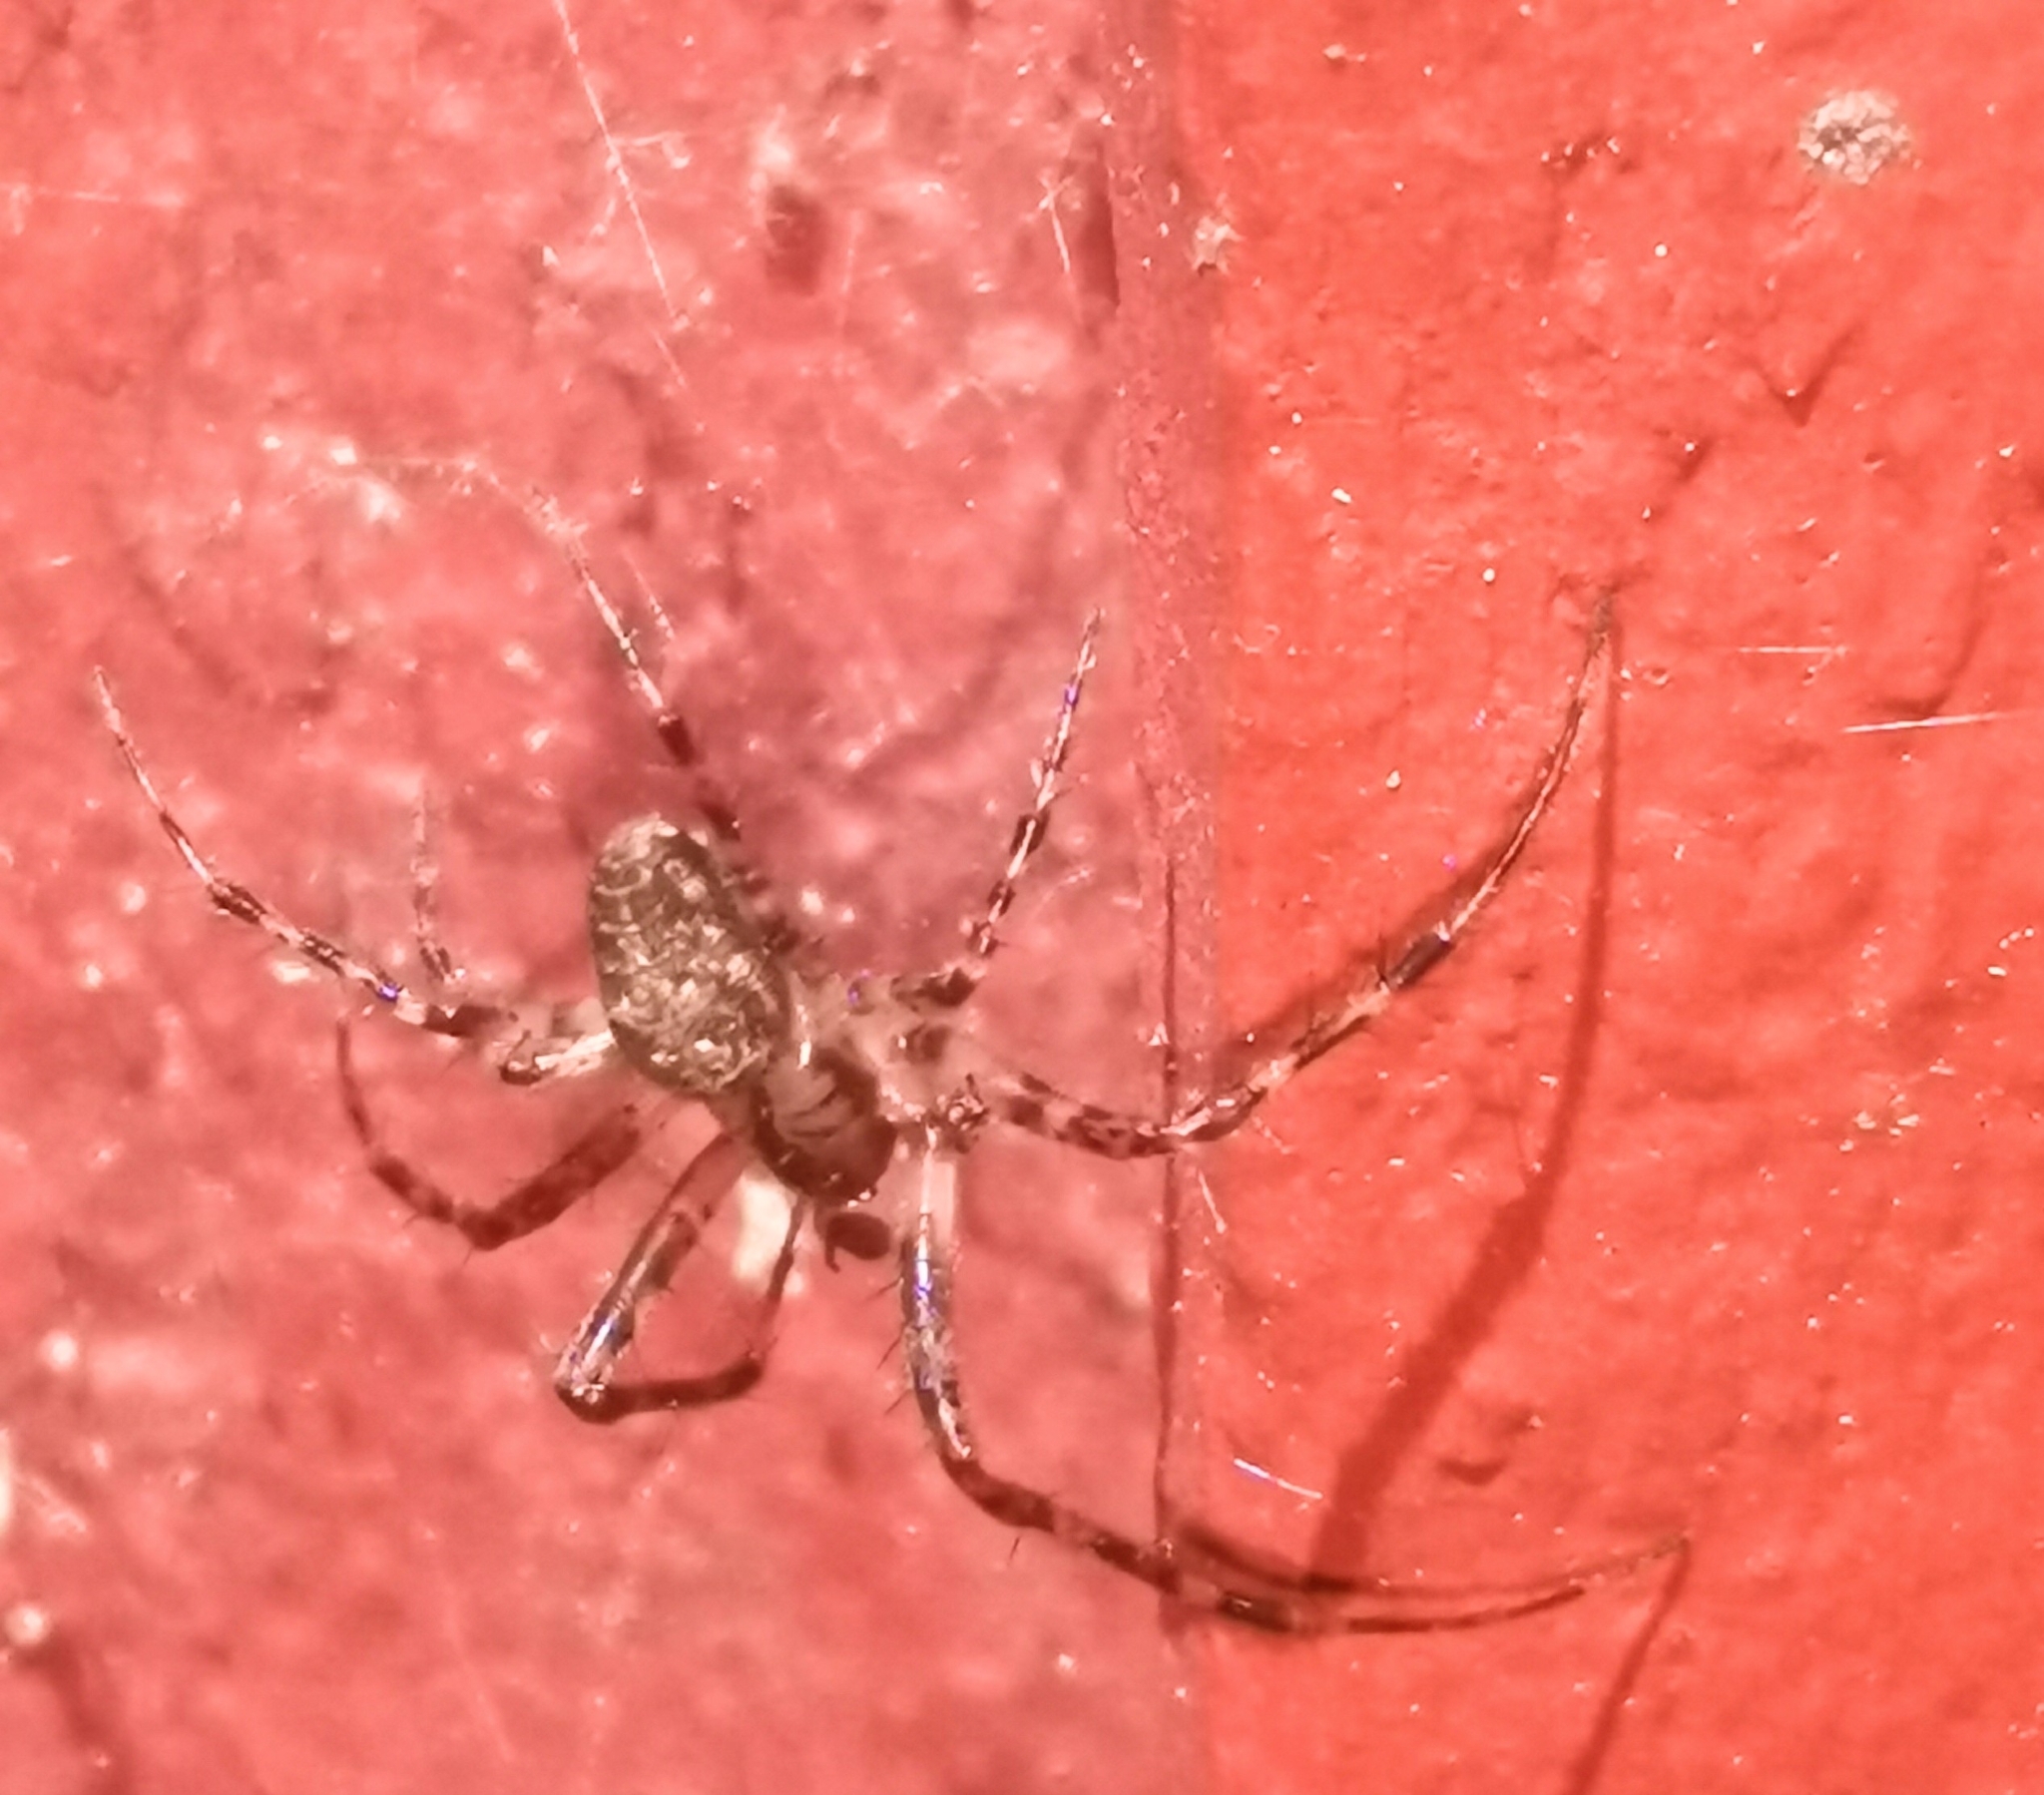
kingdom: Animalia
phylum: Arthropoda
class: Arachnida
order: Araneae
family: Tetragnathidae
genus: Metellina
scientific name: Metellina merianae
